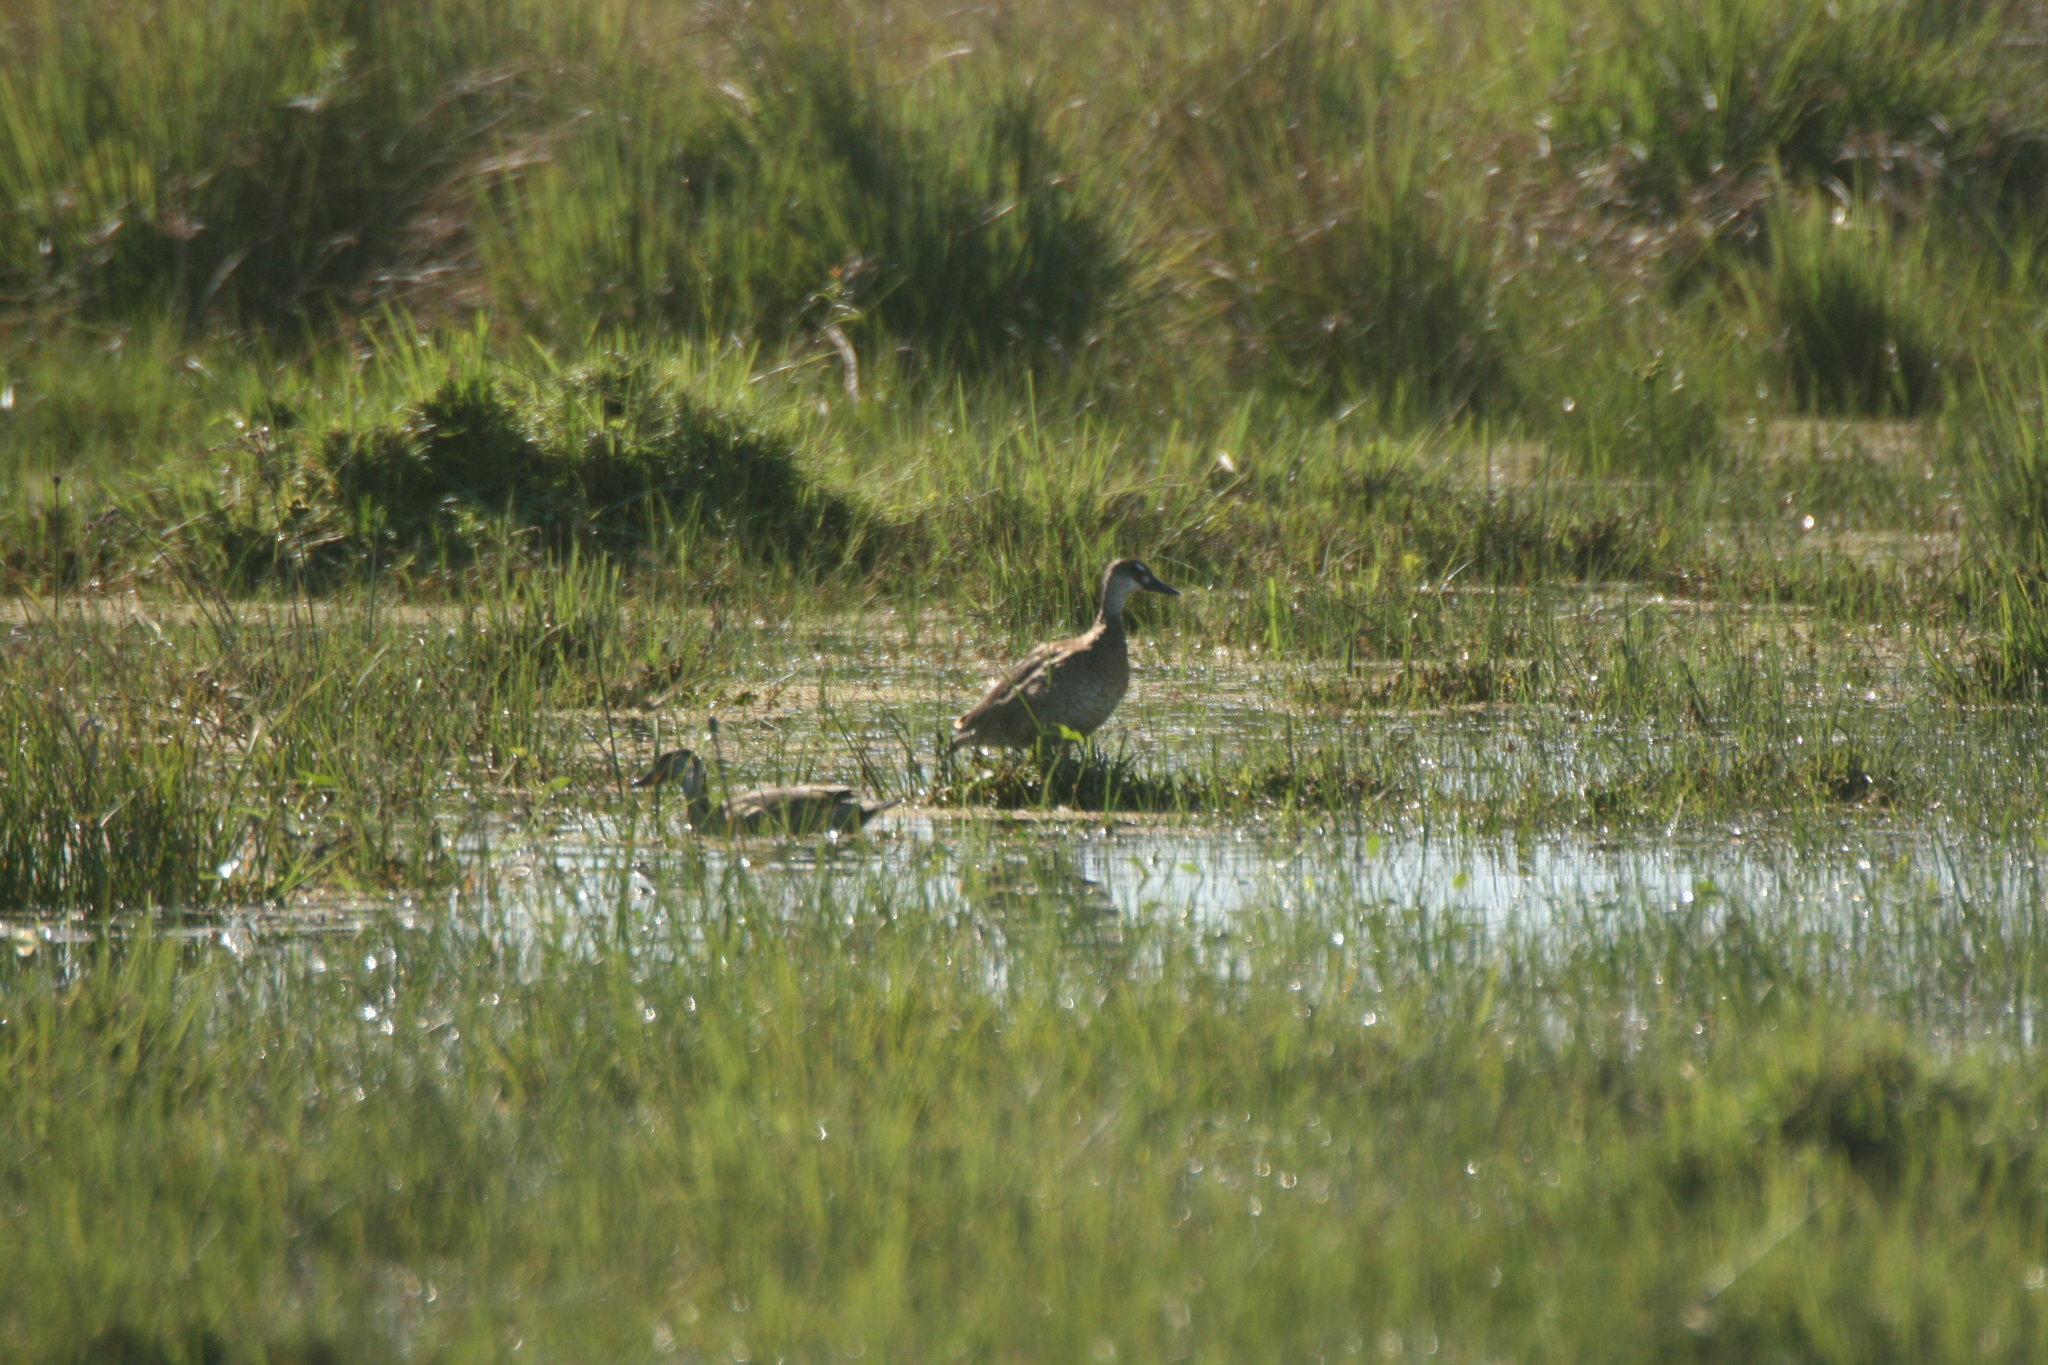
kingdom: Animalia
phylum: Chordata
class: Aves
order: Anseriformes
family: Anatidae
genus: Amazonetta
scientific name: Amazonetta brasiliensis
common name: Brazilian teal
